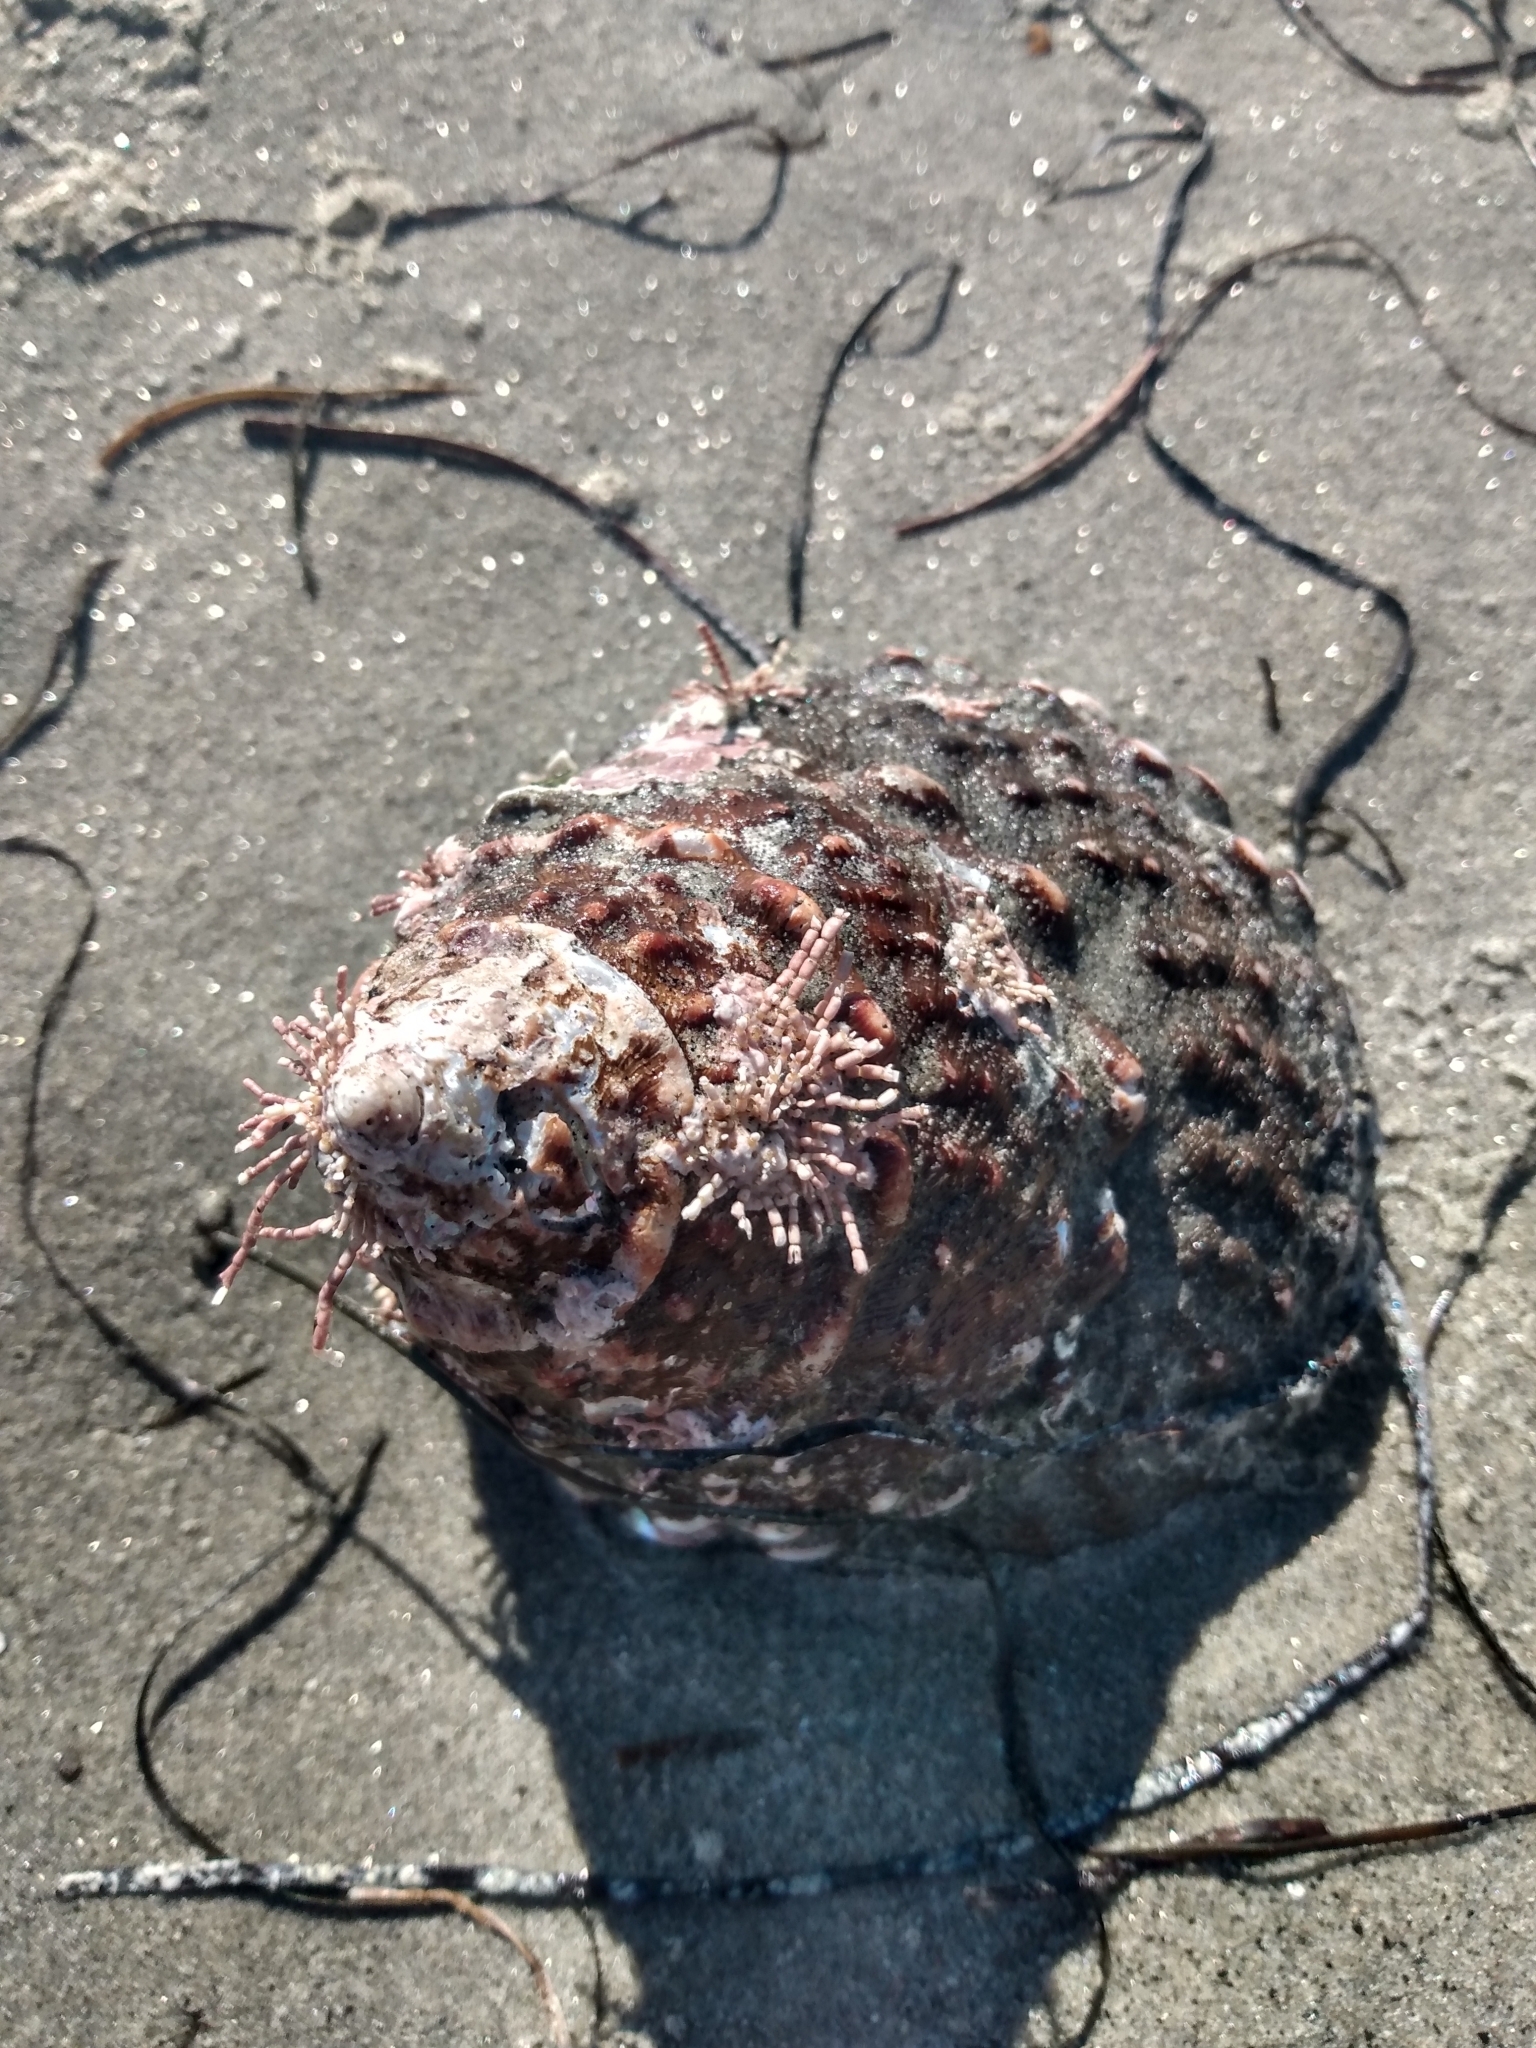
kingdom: Animalia
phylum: Mollusca
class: Gastropoda
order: Trochida
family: Turbinidae
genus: Megastraea
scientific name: Megastraea undosa
